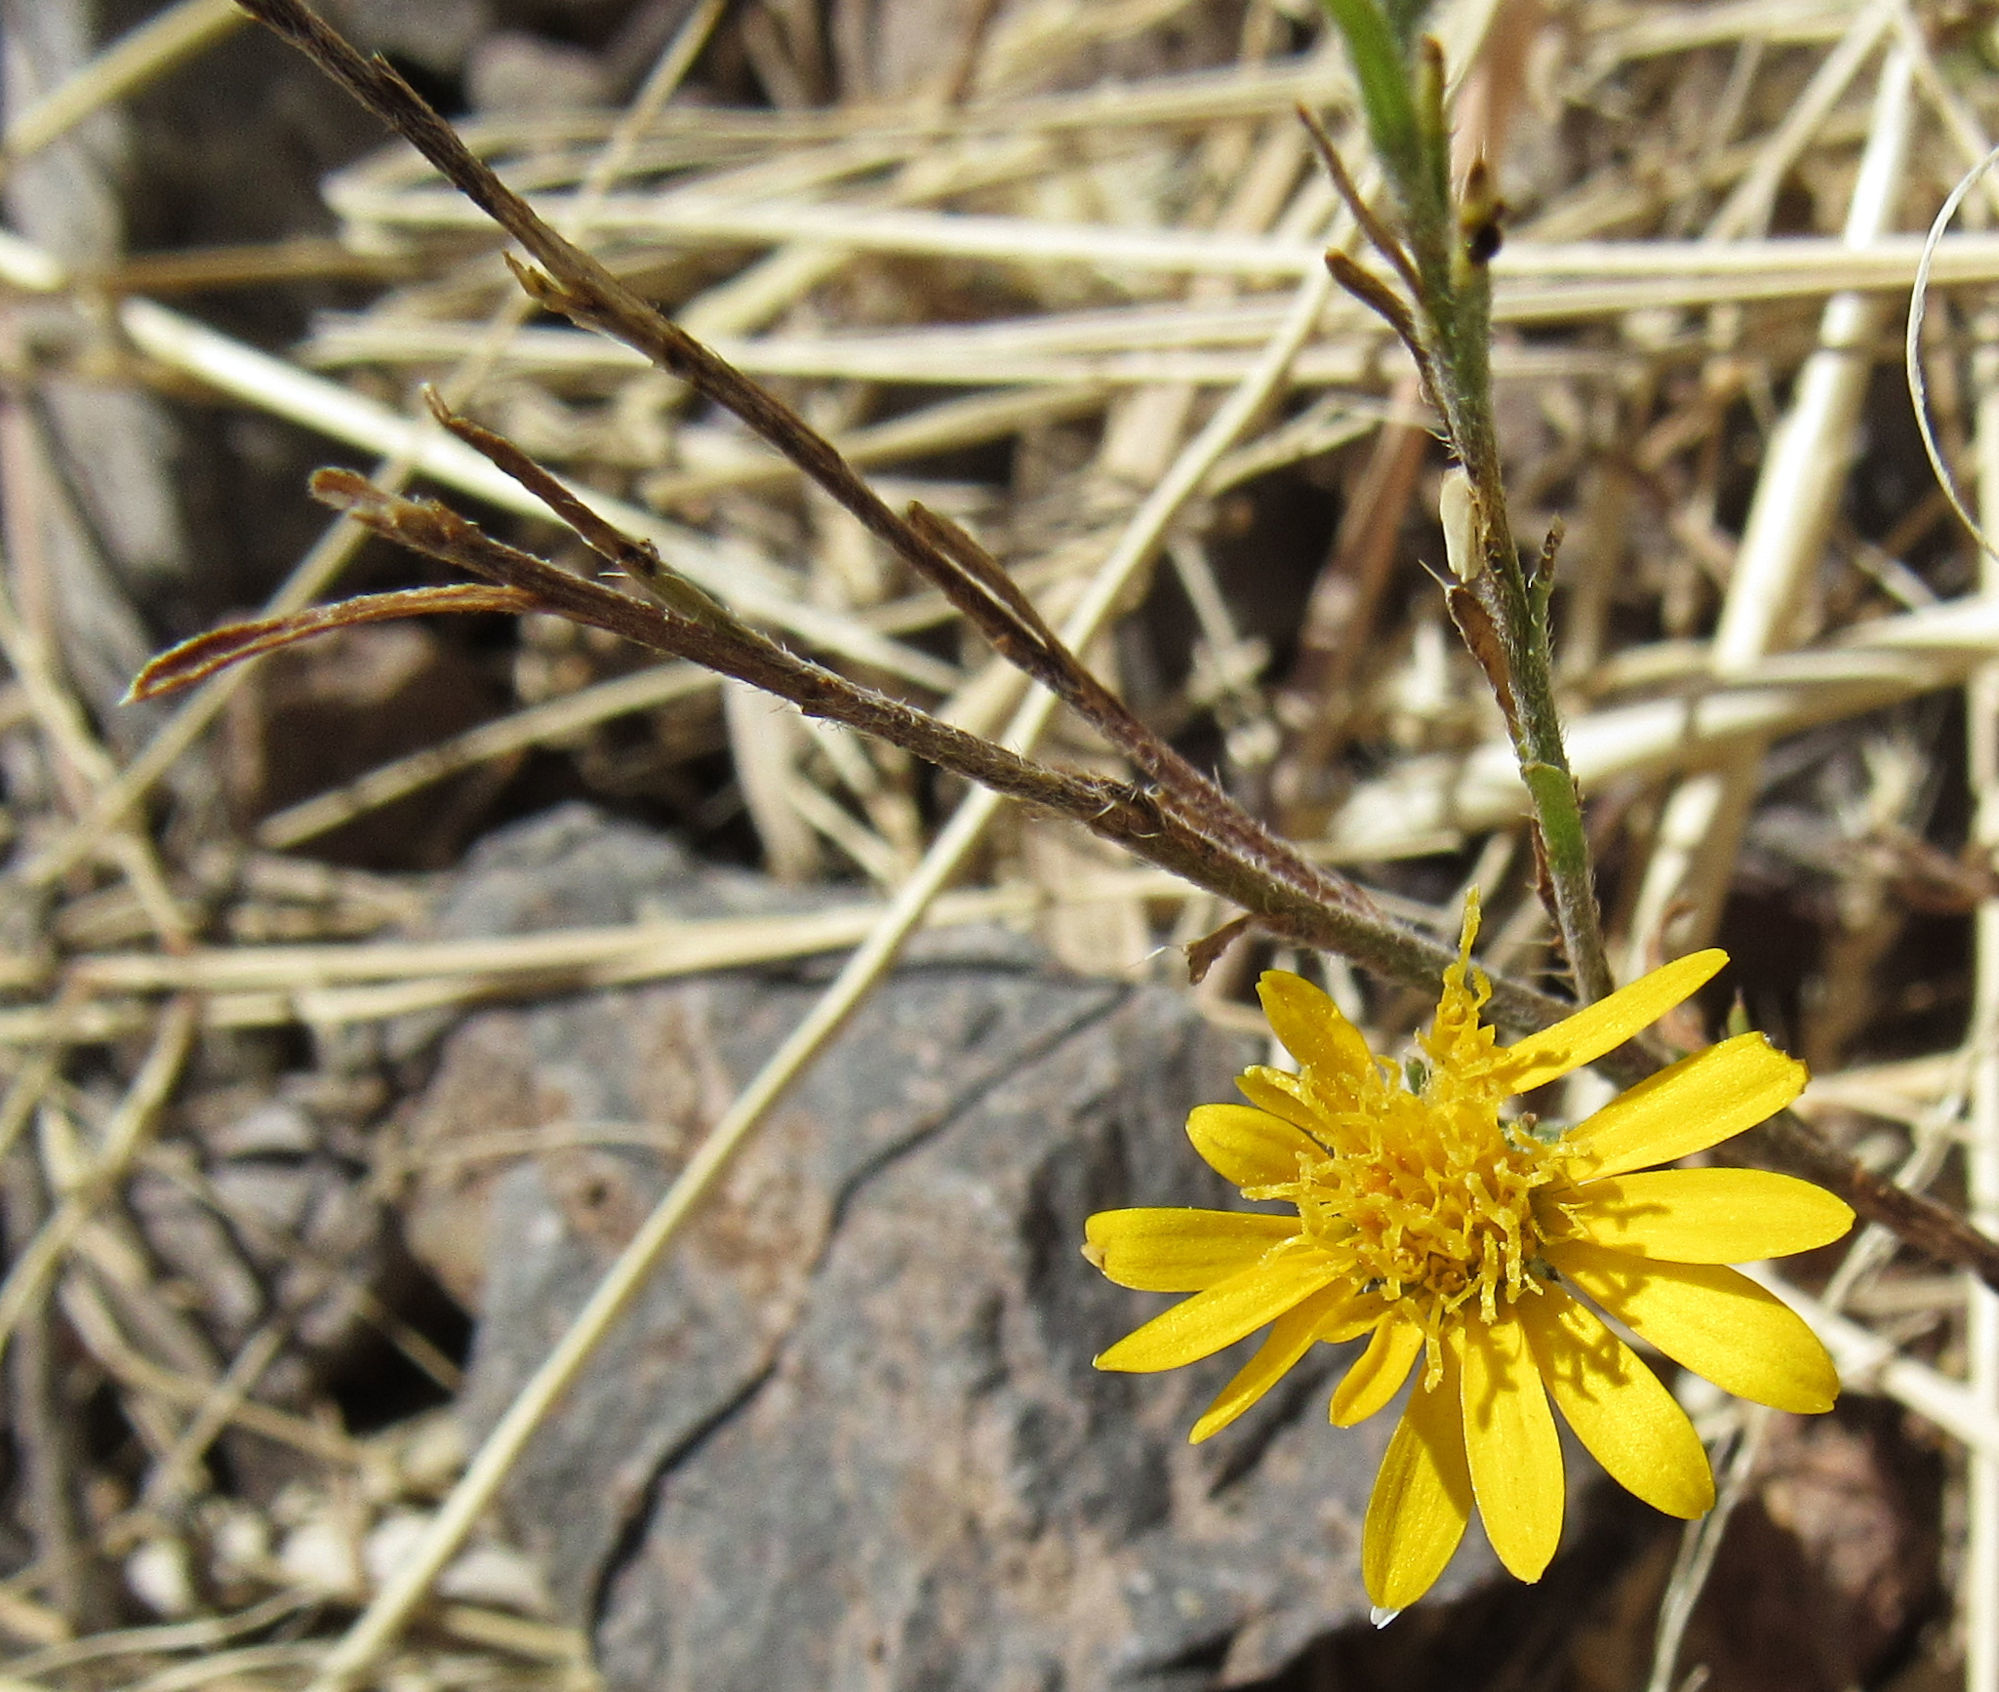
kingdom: Plantae
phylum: Tracheophyta
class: Magnoliopsida
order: Asterales
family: Asteraceae
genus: Xanthisma
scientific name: Xanthisma gracile
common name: Slender goldenweed
